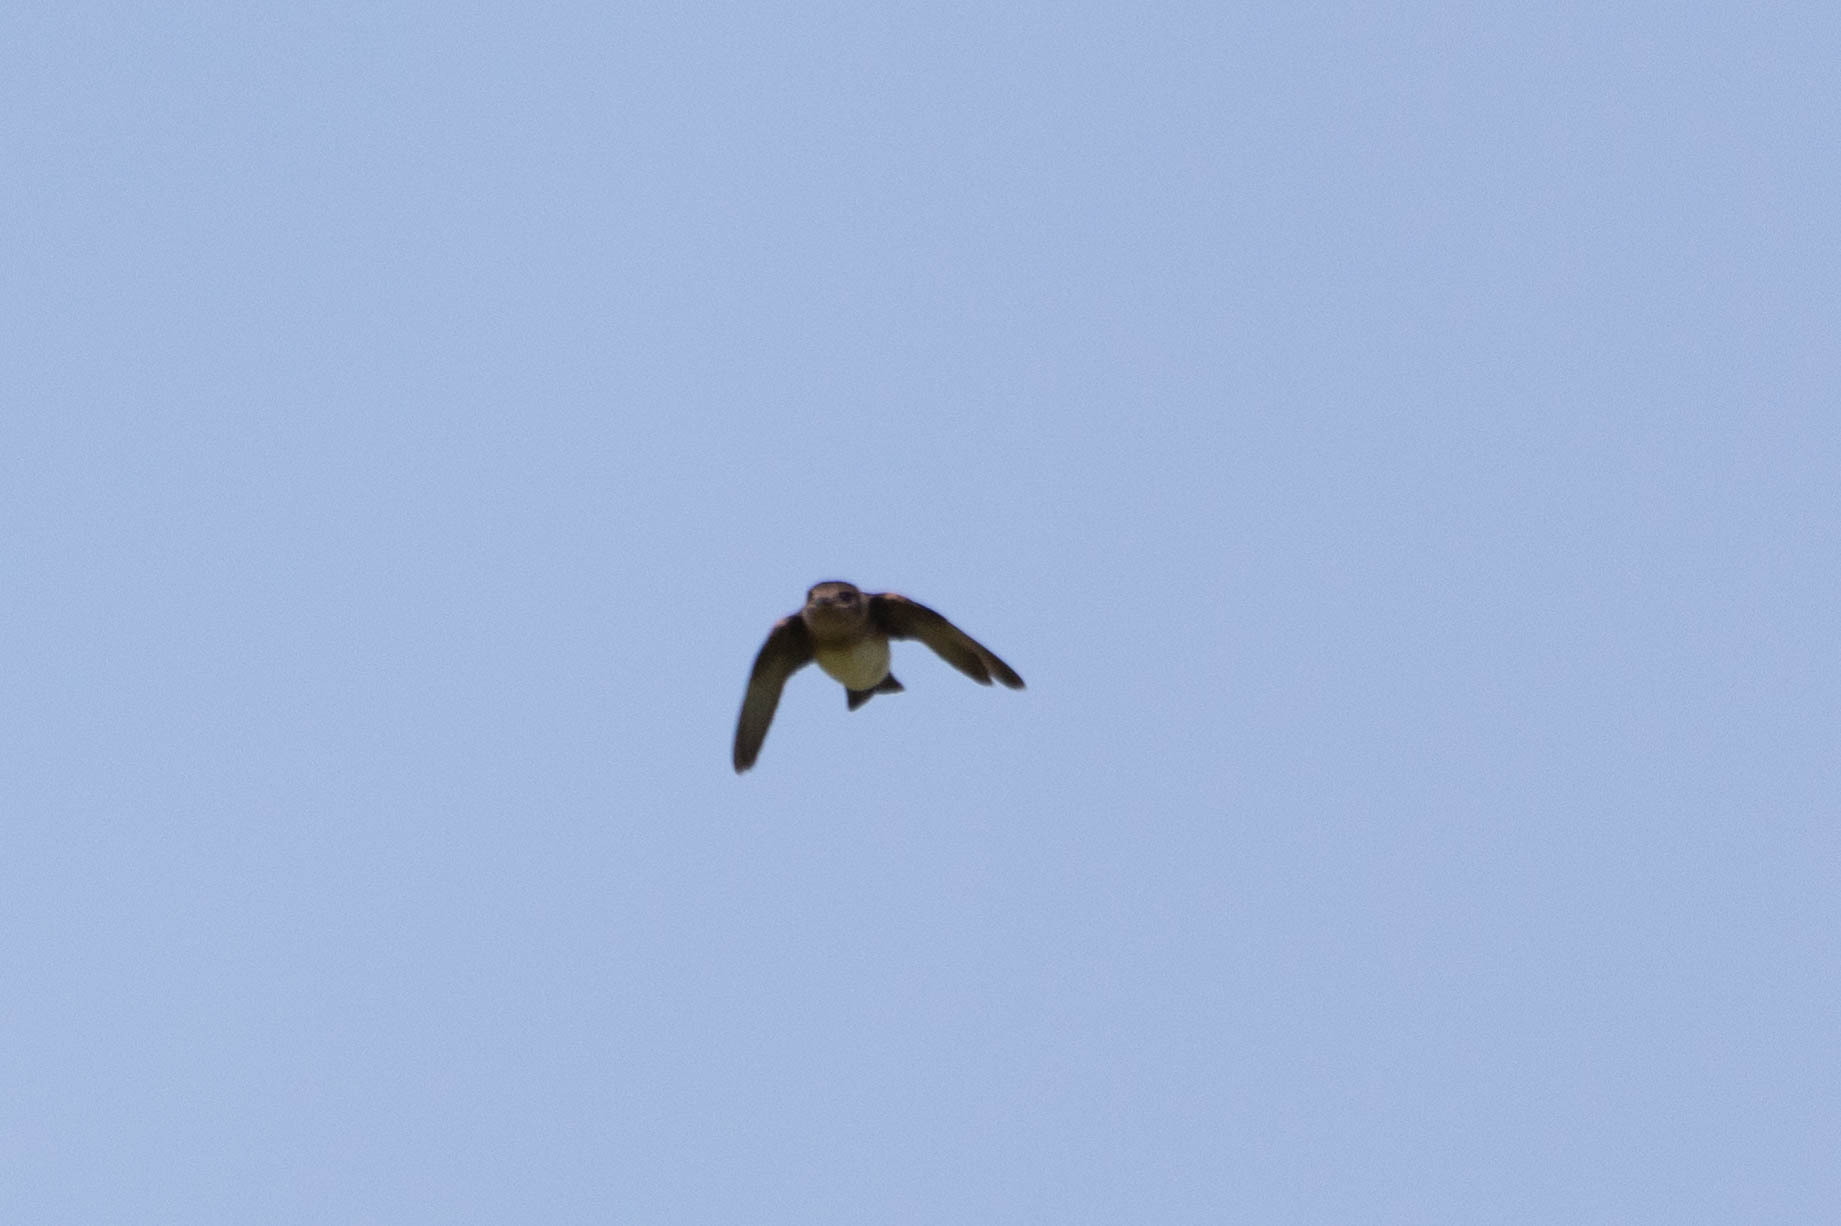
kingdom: Animalia
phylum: Chordata
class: Aves
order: Passeriformes
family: Hirundinidae
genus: Petrochelidon
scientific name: Petrochelidon pyrrhonota
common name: American cliff swallow
